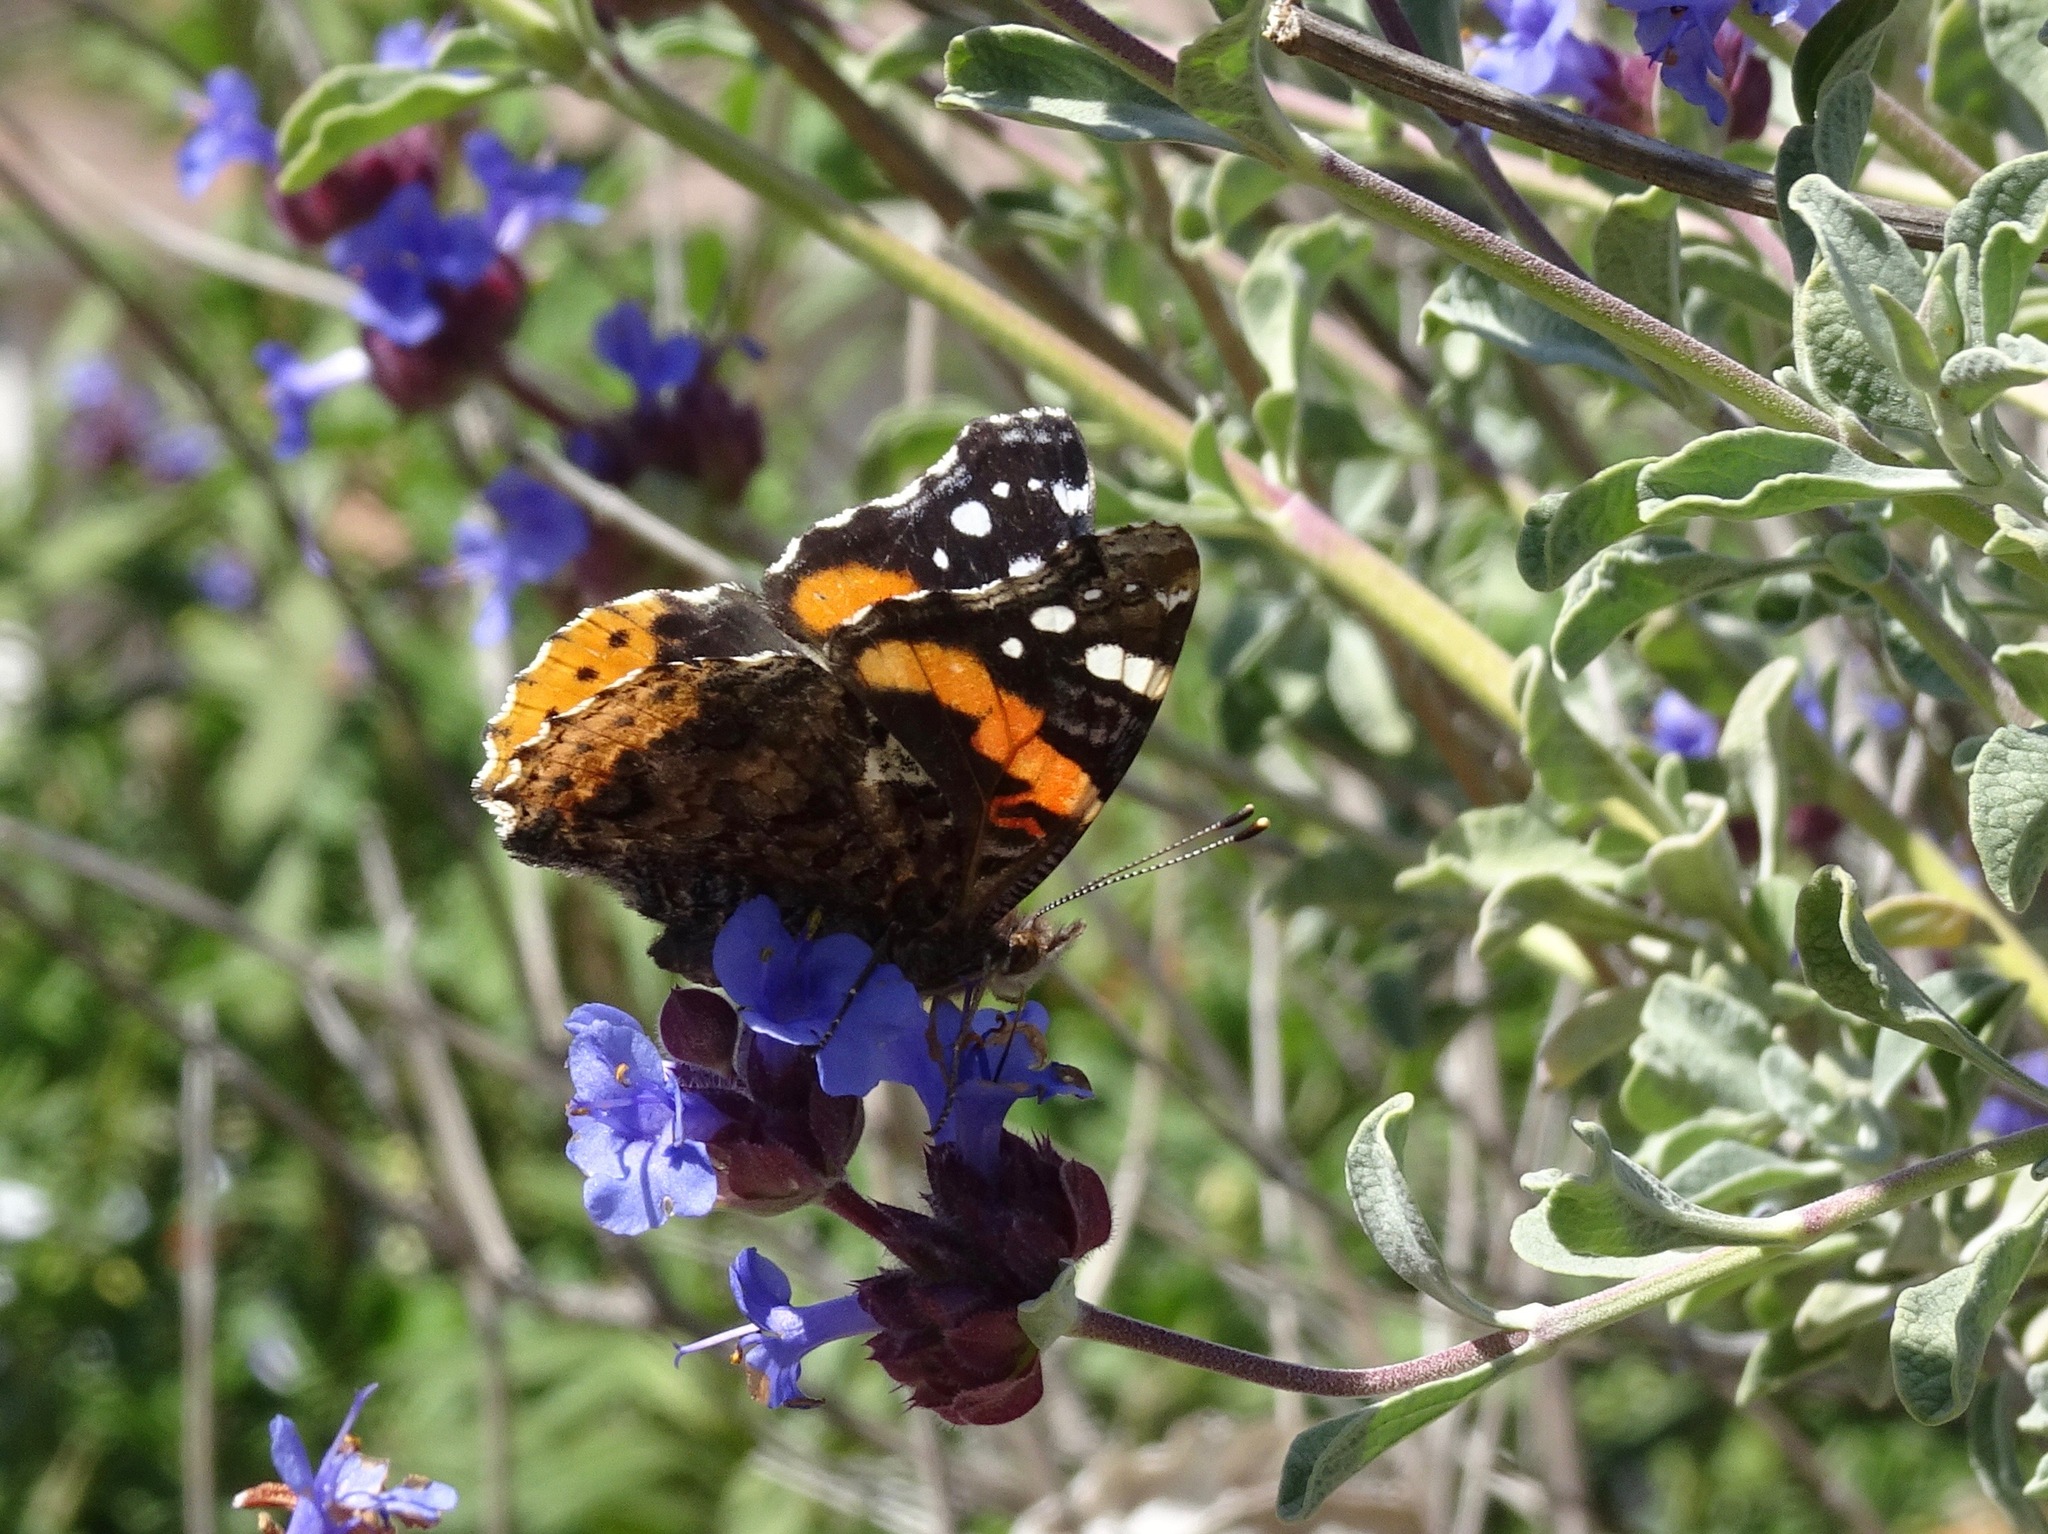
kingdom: Animalia
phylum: Arthropoda
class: Insecta
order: Lepidoptera
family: Nymphalidae
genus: Vanessa
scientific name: Vanessa atalanta
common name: Red admiral
